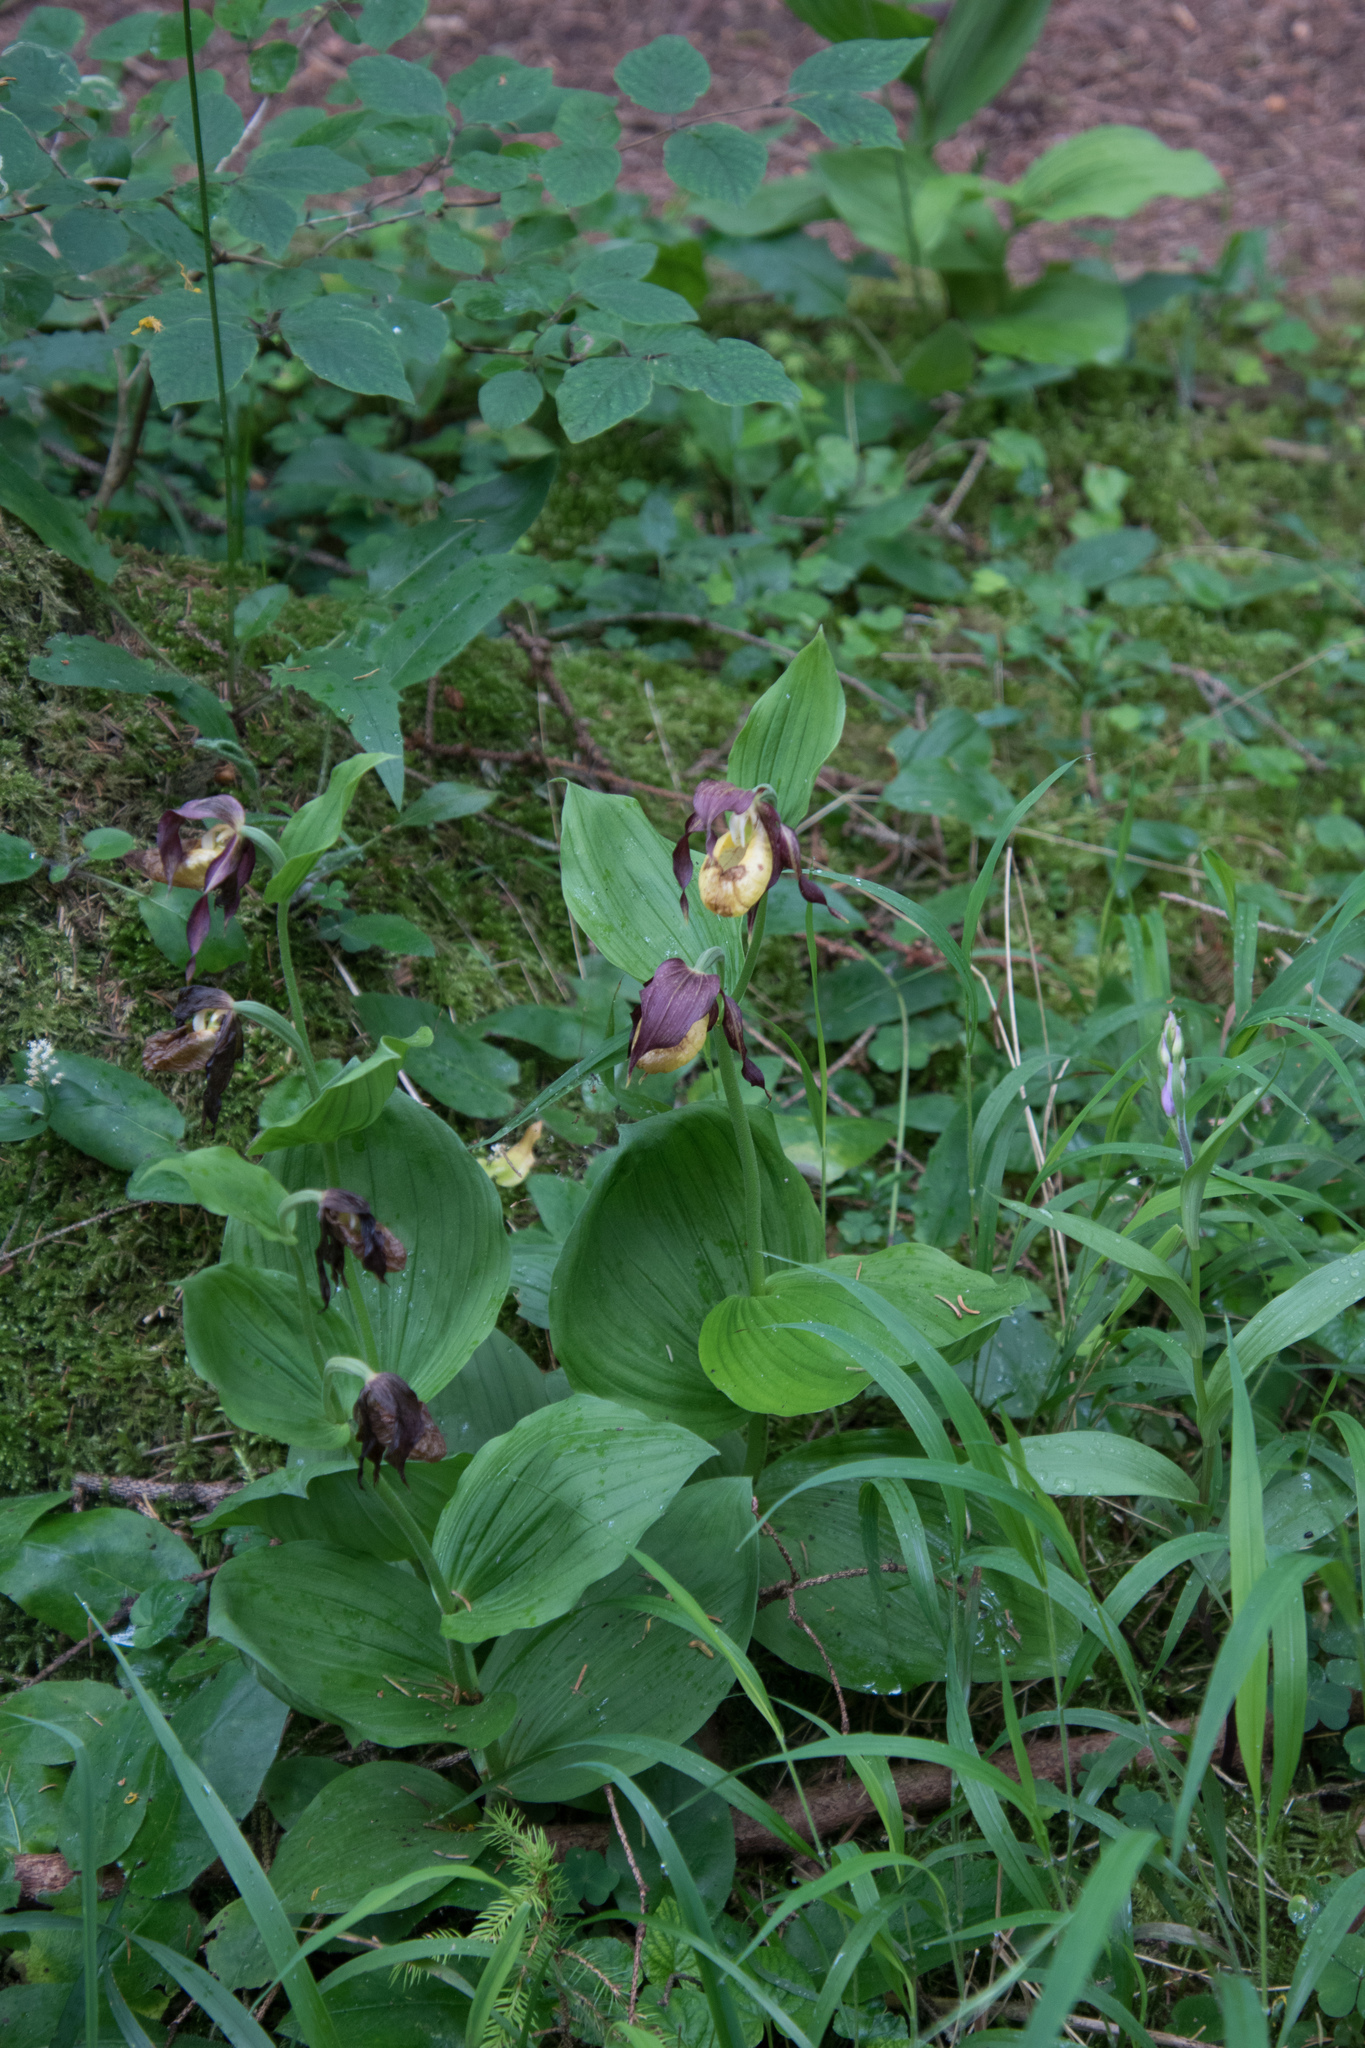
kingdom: Plantae
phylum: Tracheophyta
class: Liliopsida
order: Asparagales
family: Orchidaceae
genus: Cypripedium
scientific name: Cypripedium calceolus
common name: Lady's-slipper
